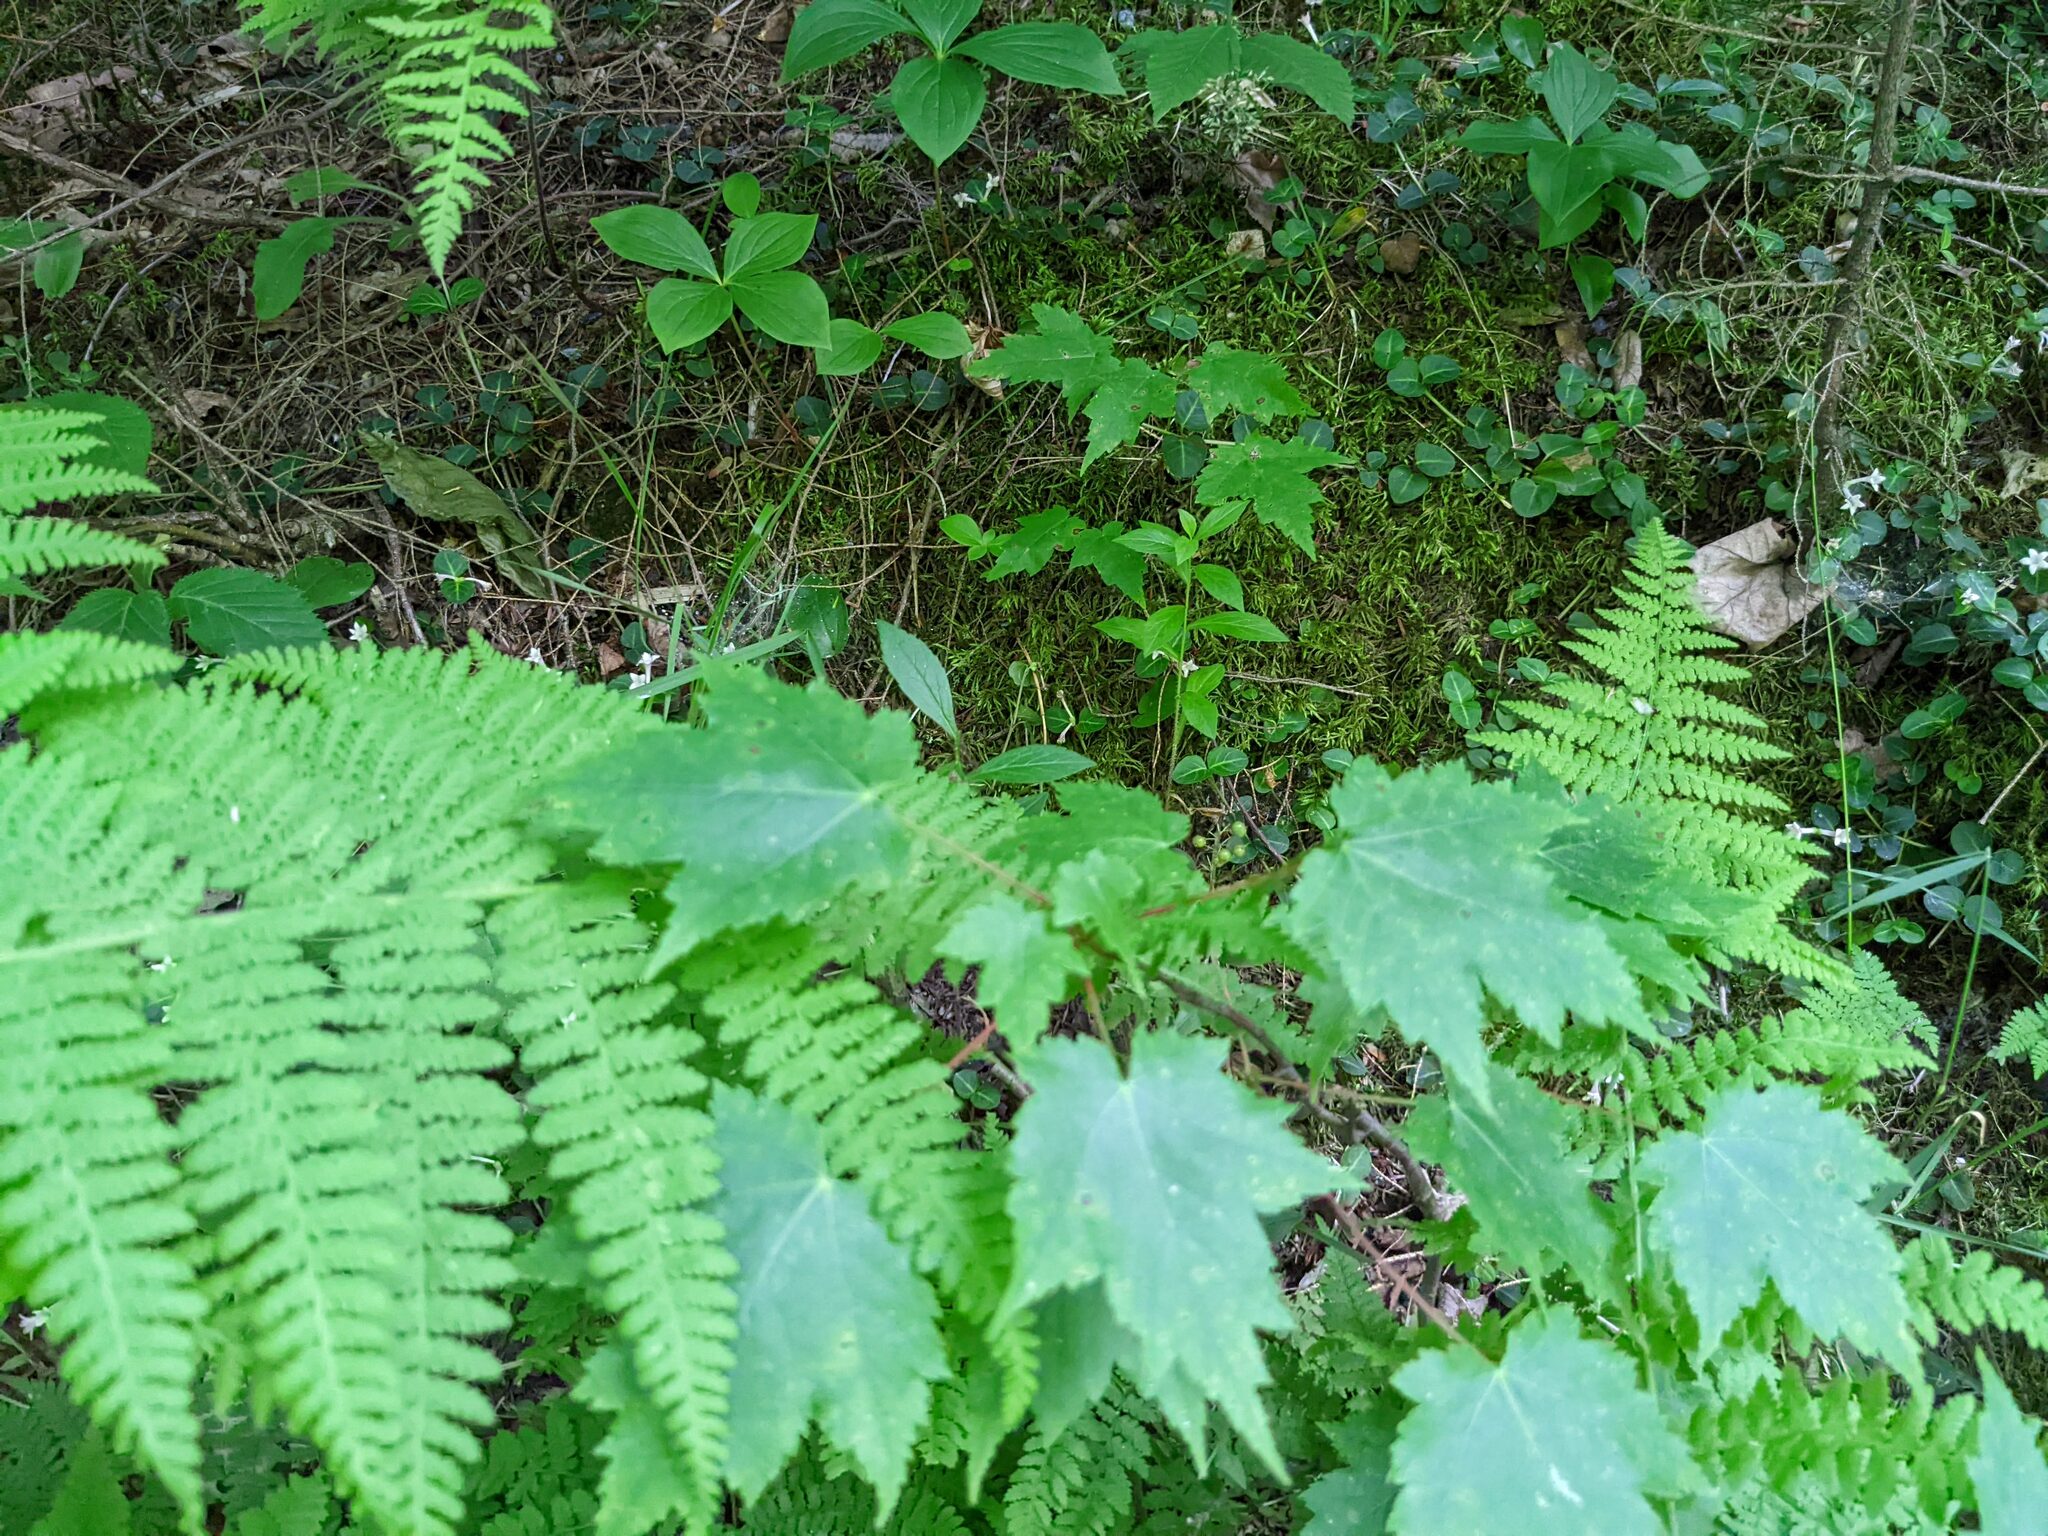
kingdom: Plantae
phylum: Tracheophyta
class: Magnoliopsida
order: Cornales
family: Cornaceae
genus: Cornus
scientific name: Cornus canadensis
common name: Creeping dogwood
